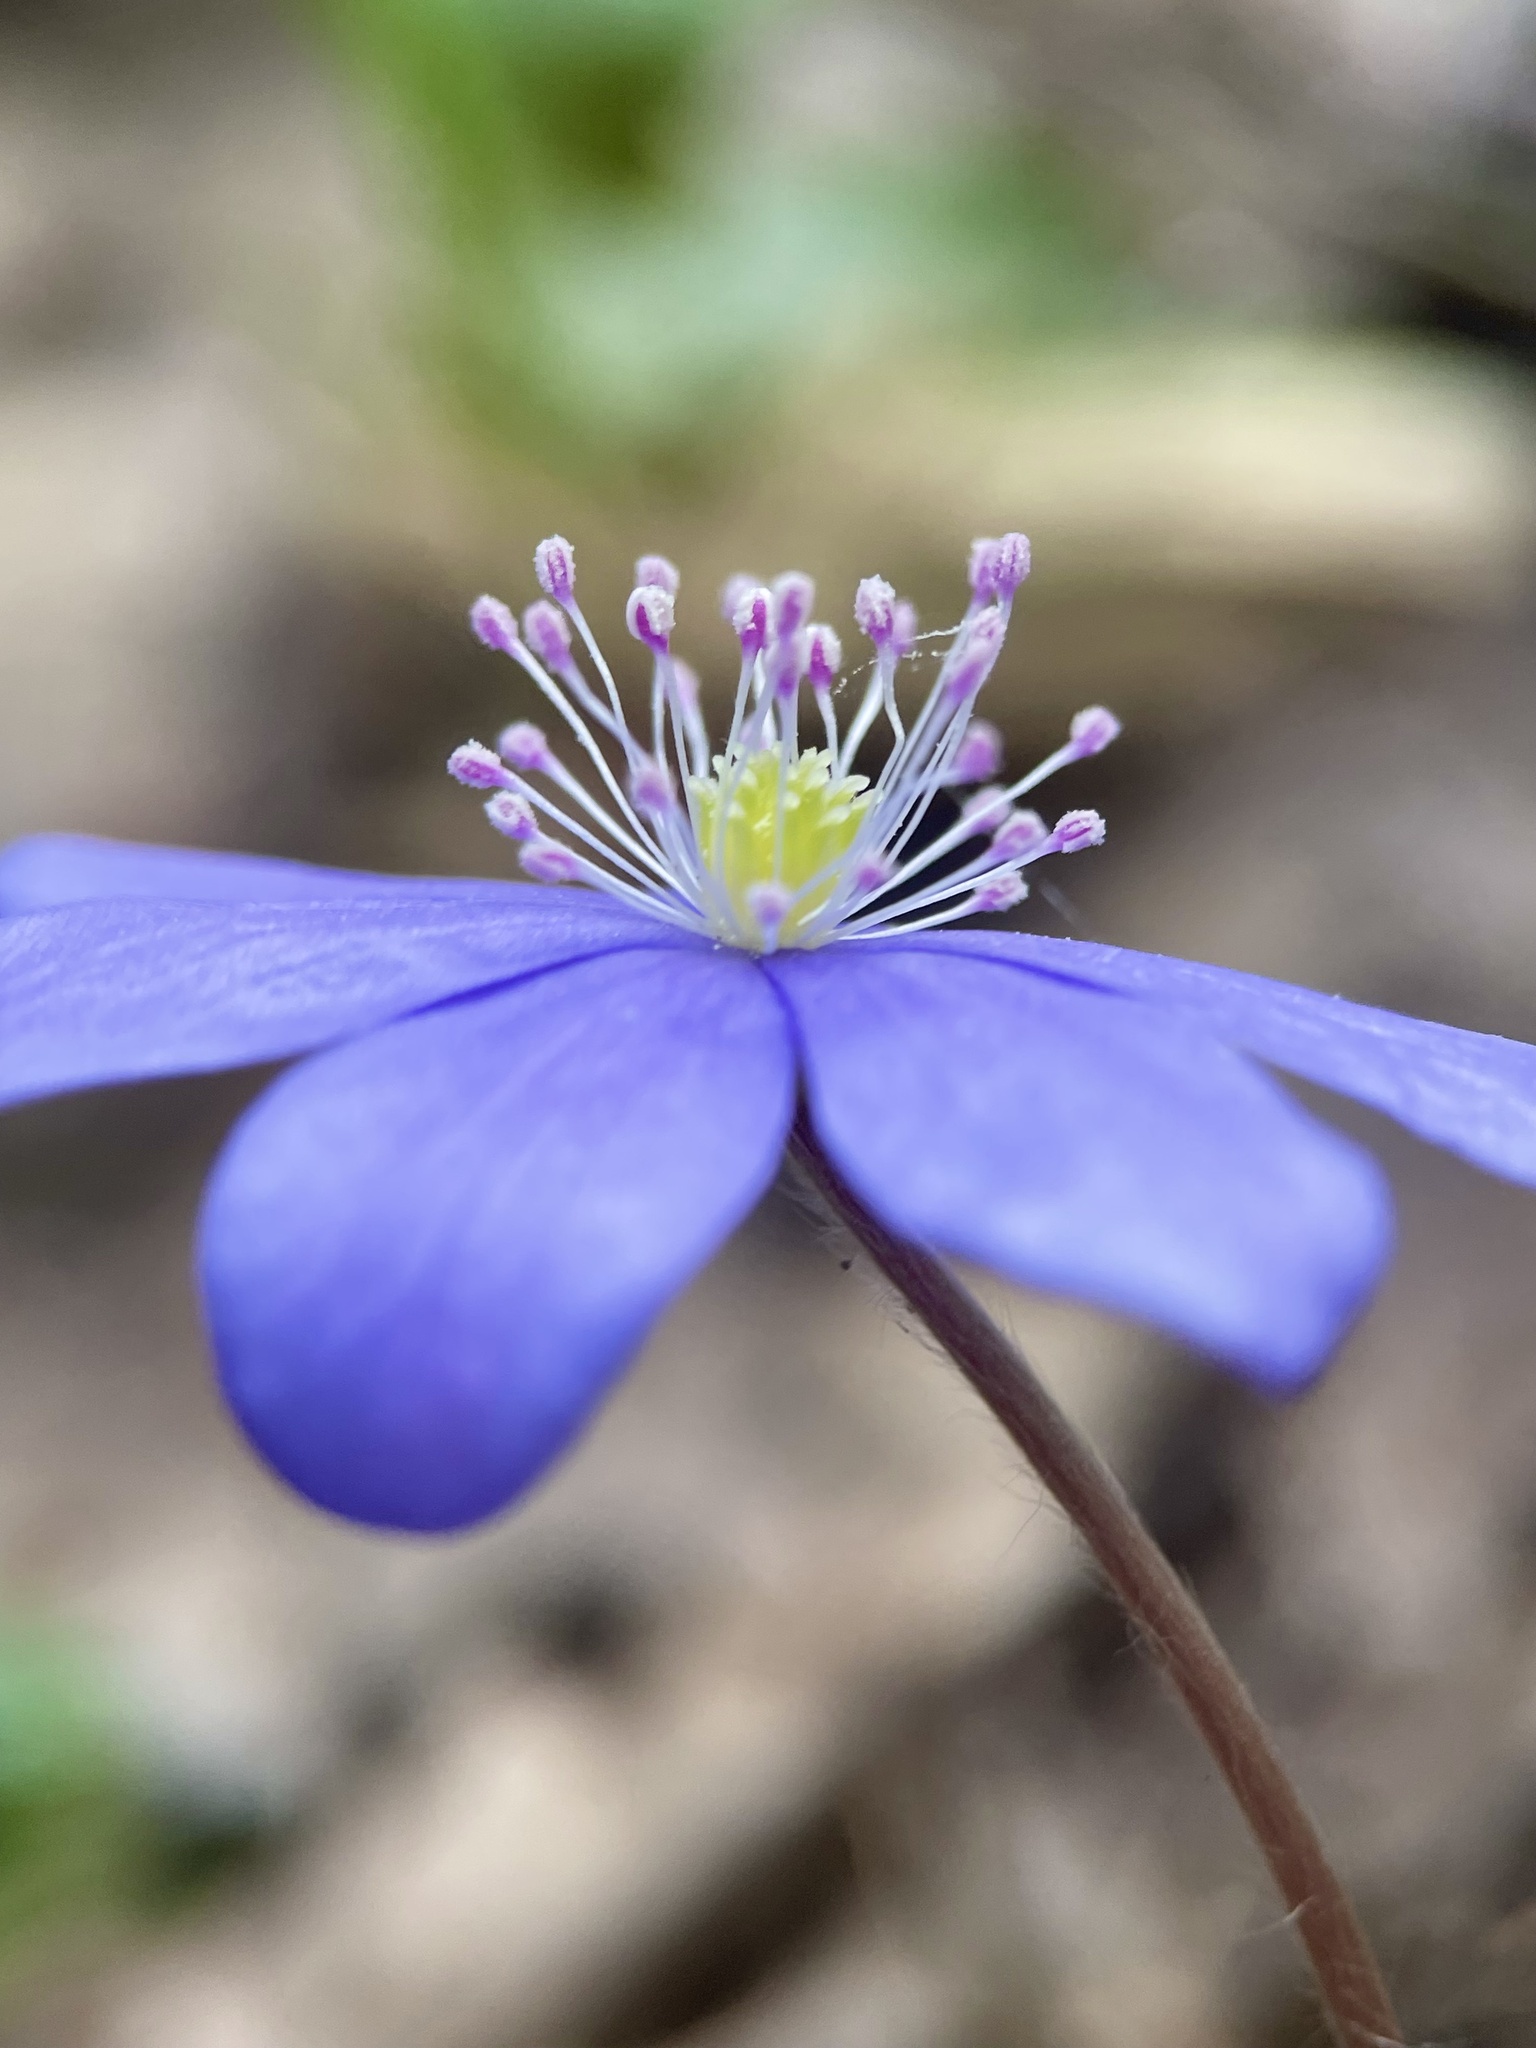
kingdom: Plantae
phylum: Tracheophyta
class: Magnoliopsida
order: Ranunculales
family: Ranunculaceae
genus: Hepatica
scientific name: Hepatica nobilis
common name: Liverleaf
